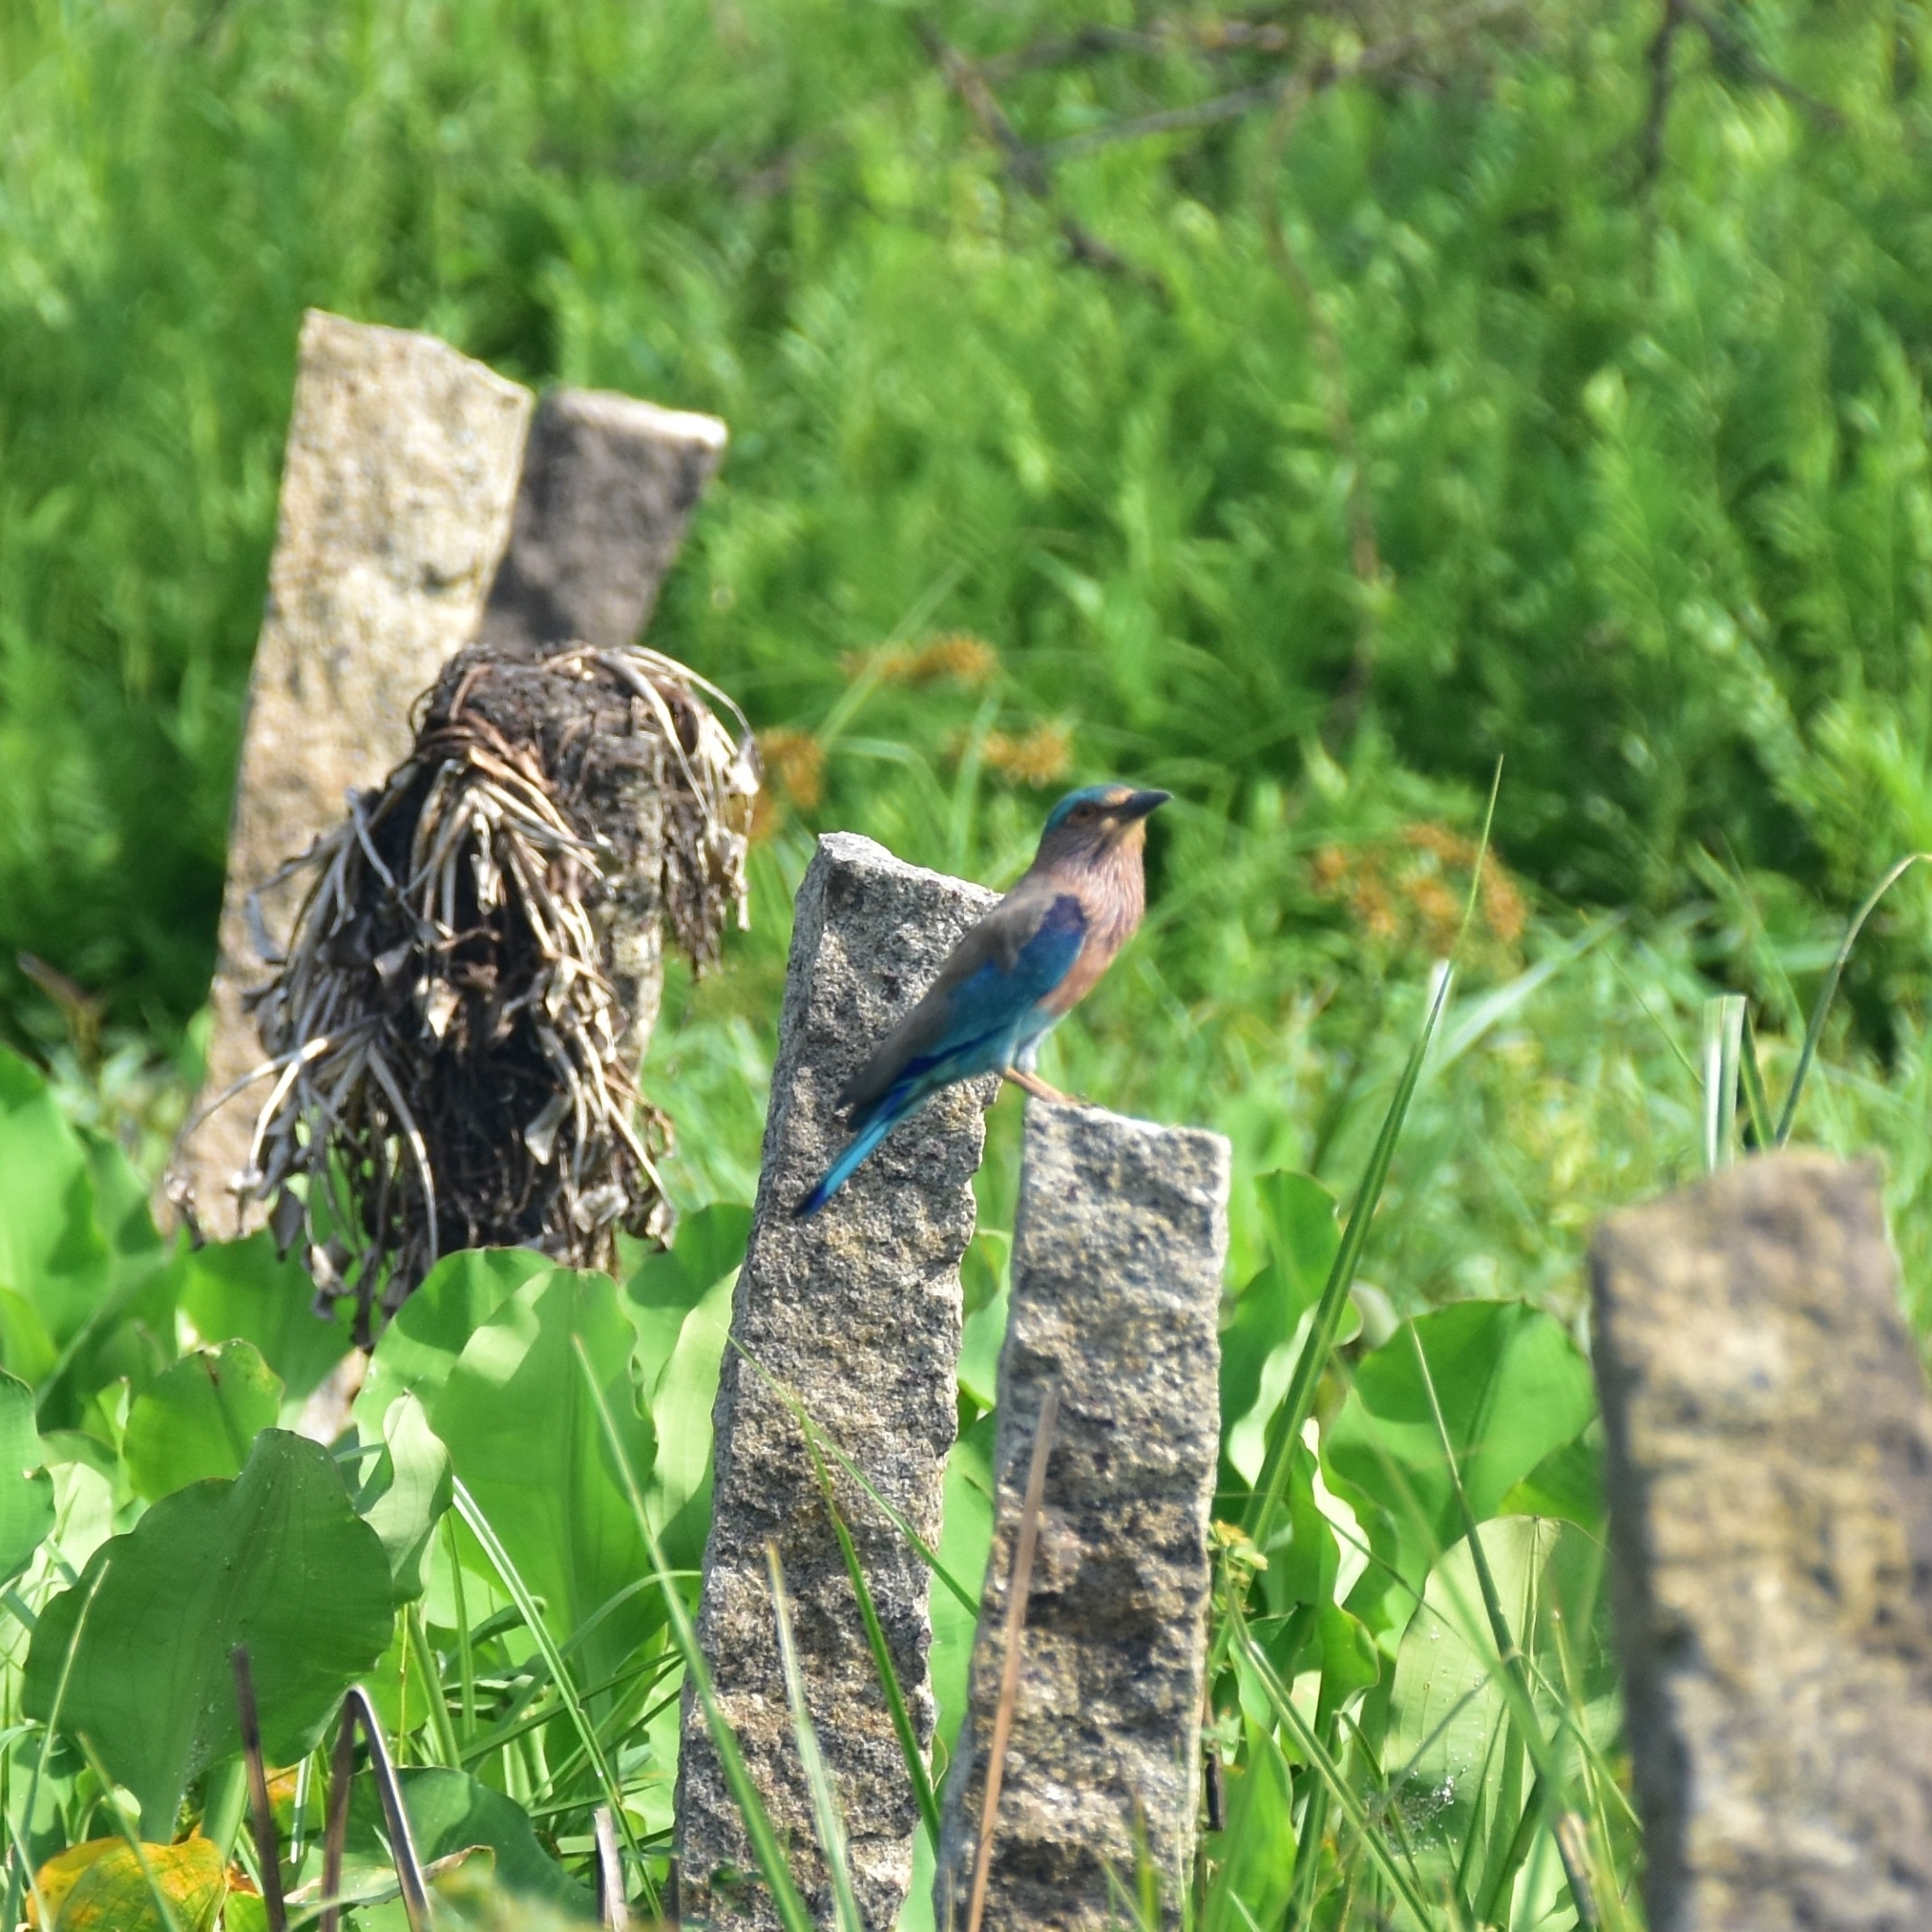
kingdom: Animalia
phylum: Chordata
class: Aves
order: Coraciiformes
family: Coraciidae
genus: Coracias
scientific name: Coracias benghalensis
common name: Indian roller
